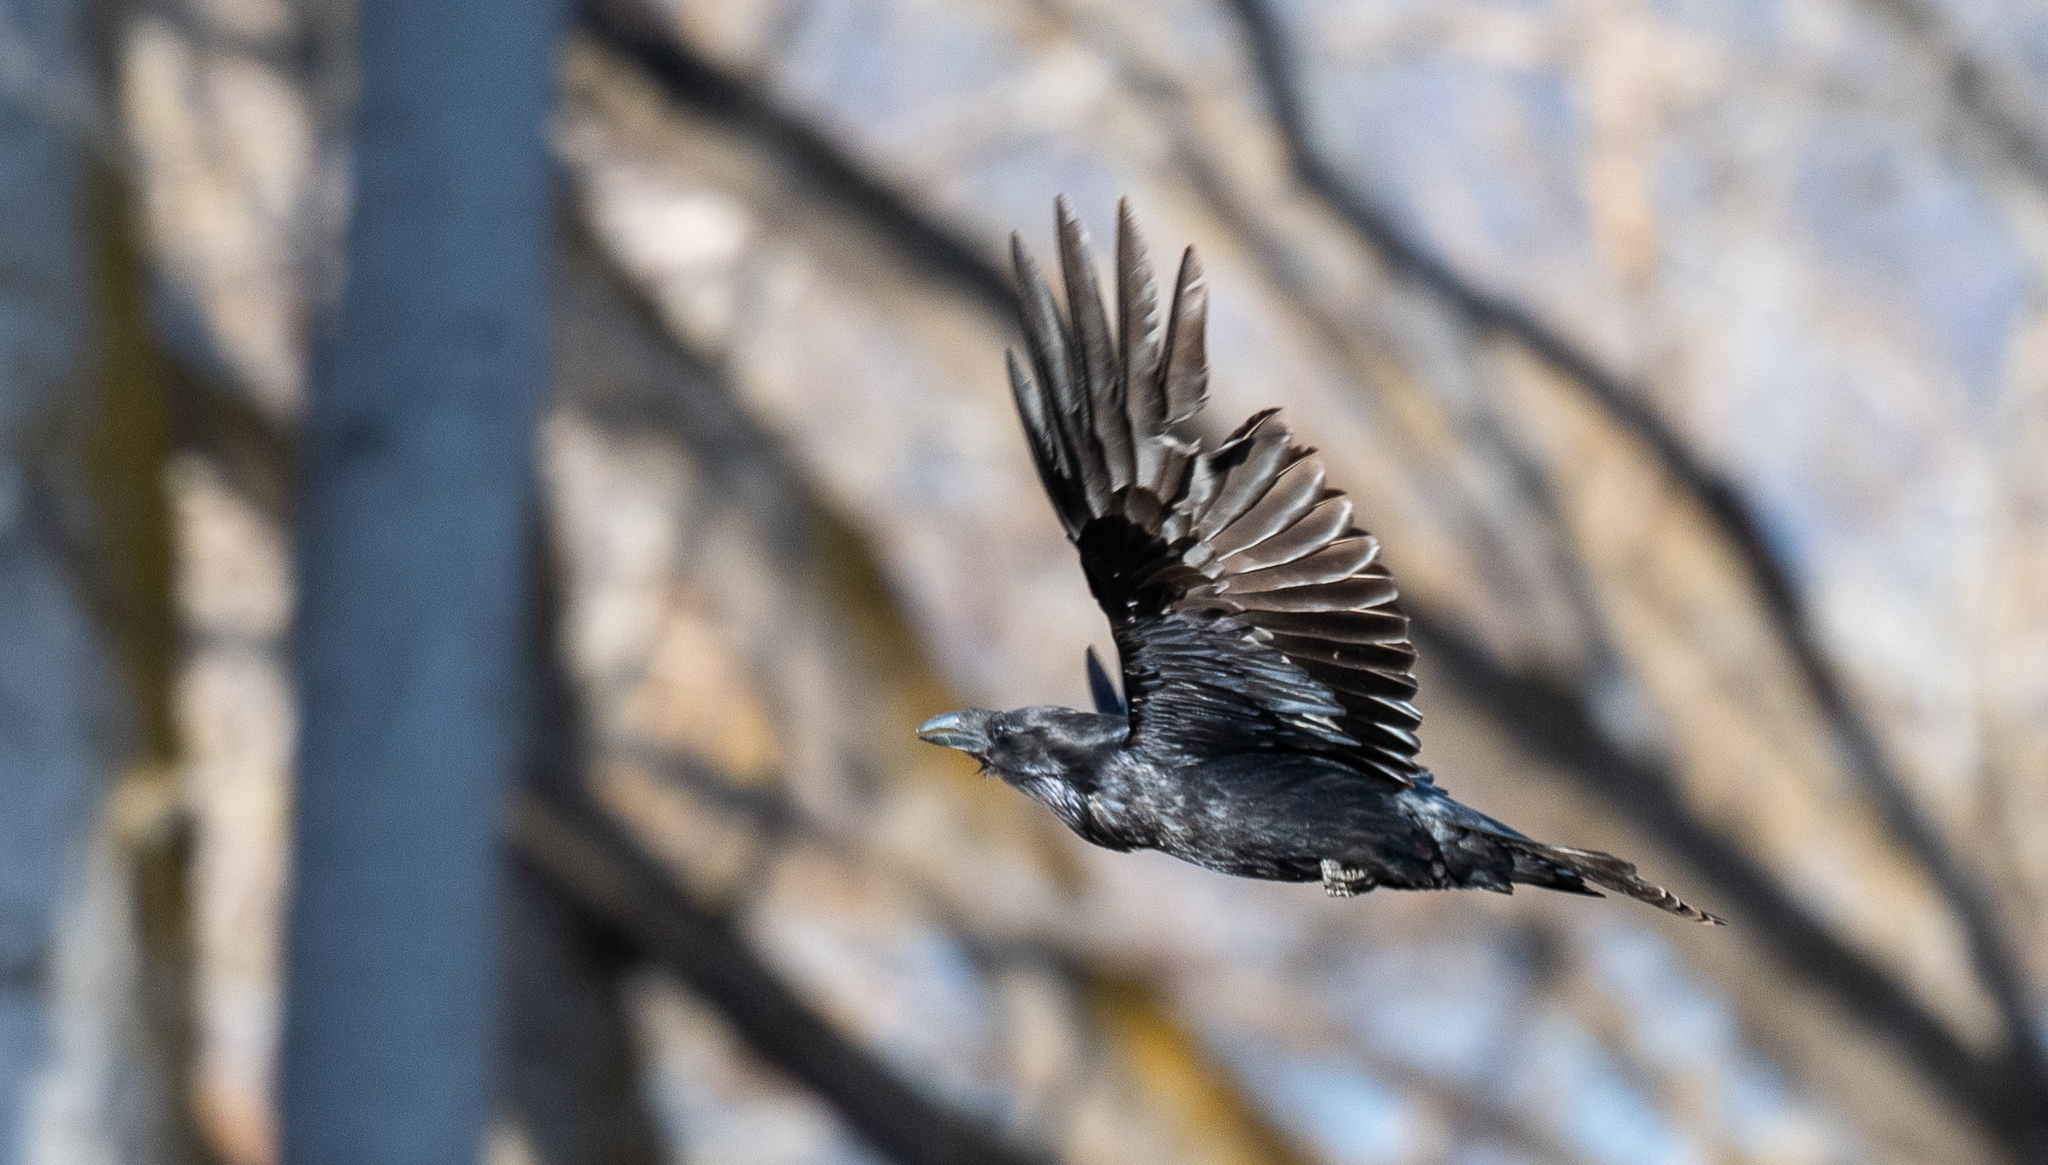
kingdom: Animalia
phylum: Chordata
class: Aves
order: Passeriformes
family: Corvidae
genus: Corvus
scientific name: Corvus corax
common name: Common raven
